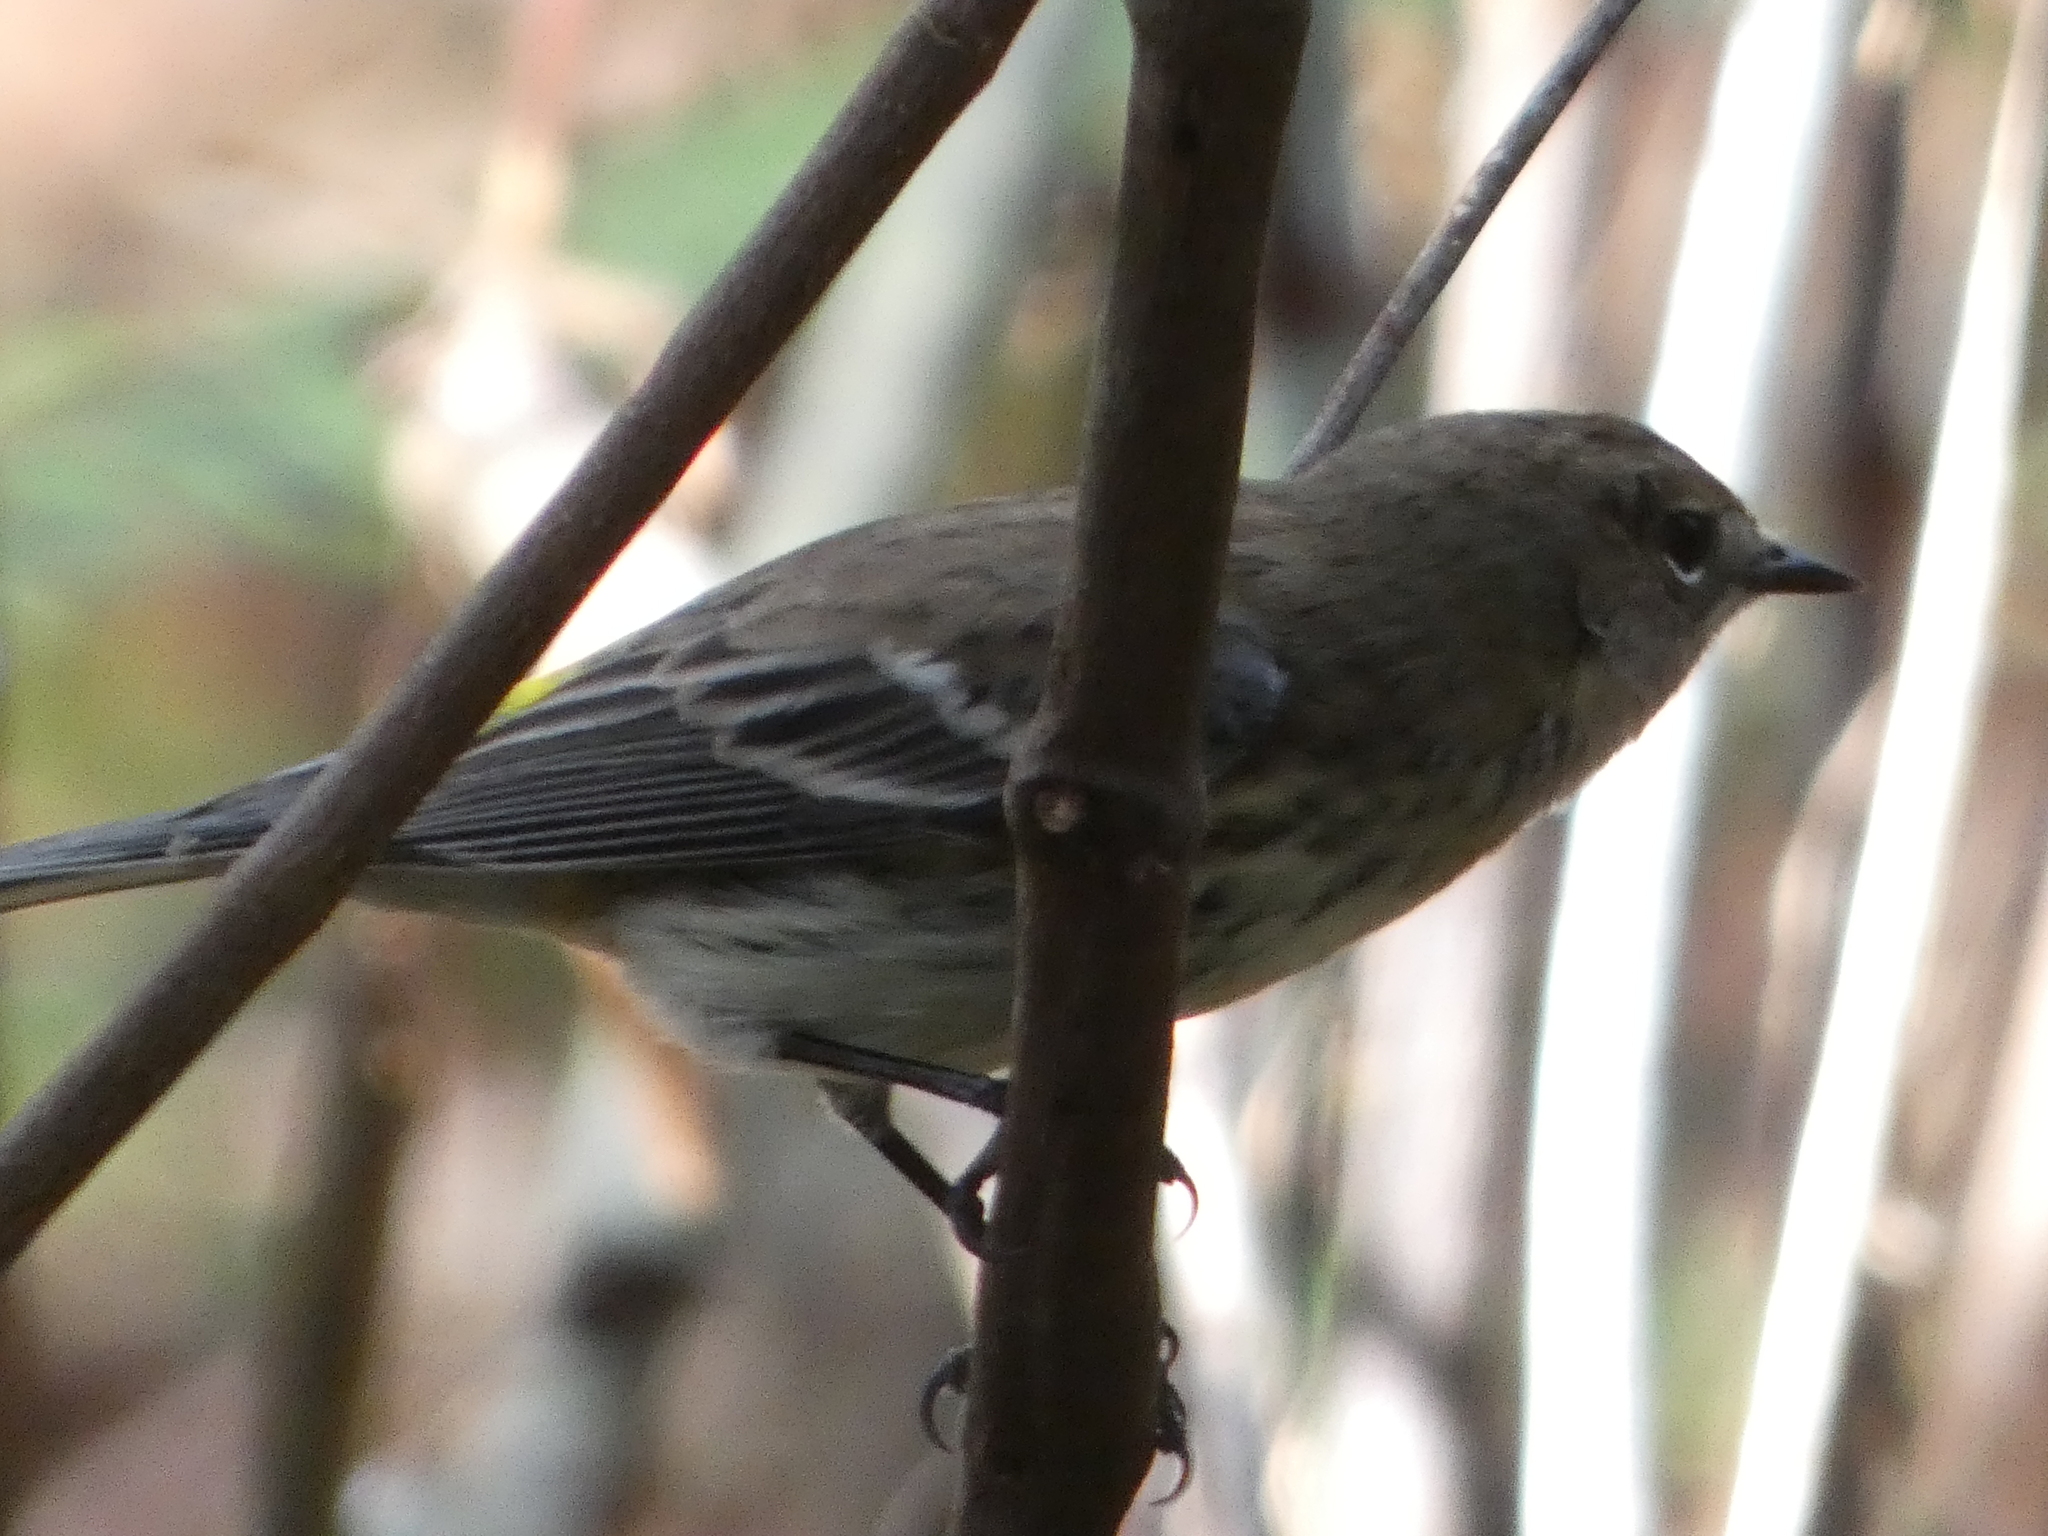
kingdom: Animalia
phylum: Chordata
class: Aves
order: Passeriformes
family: Parulidae
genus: Setophaga
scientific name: Setophaga coronata
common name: Myrtle warbler
